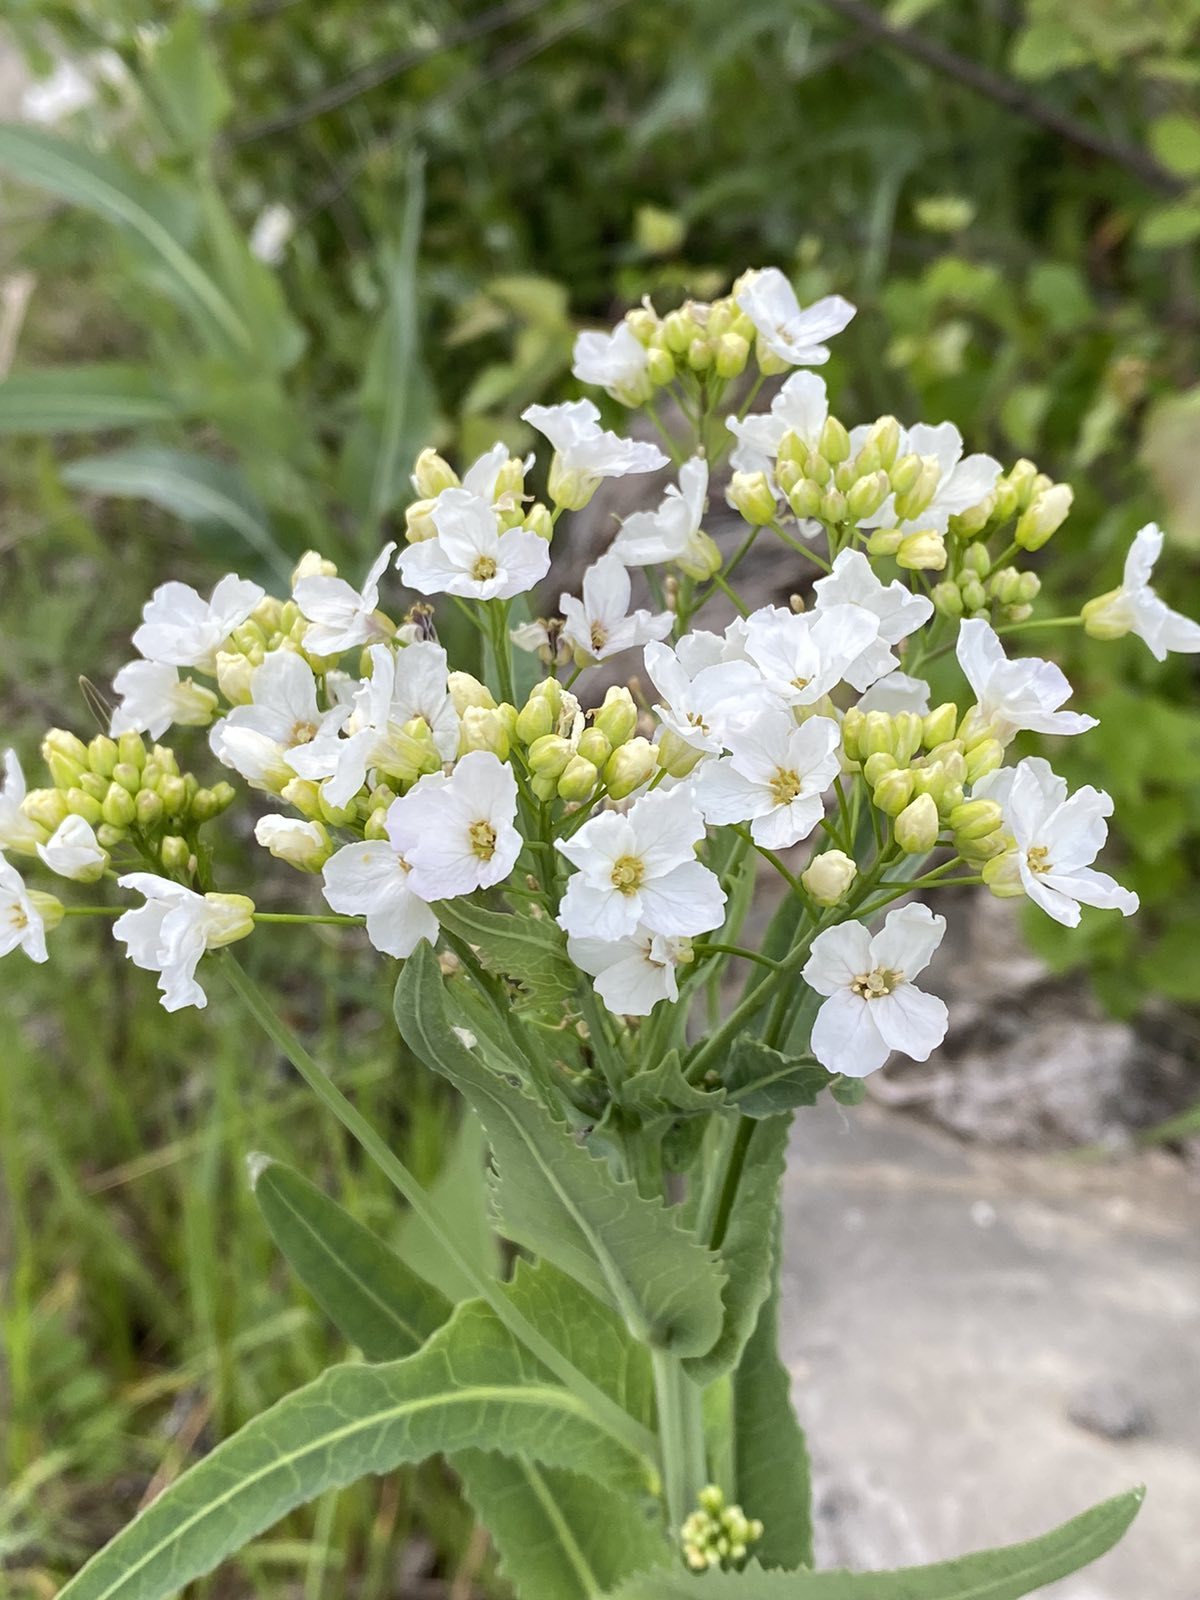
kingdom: Plantae
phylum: Tracheophyta
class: Magnoliopsida
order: Brassicales
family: Brassicaceae
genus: Armoracia
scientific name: Armoracia rusticana
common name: Horseradish
